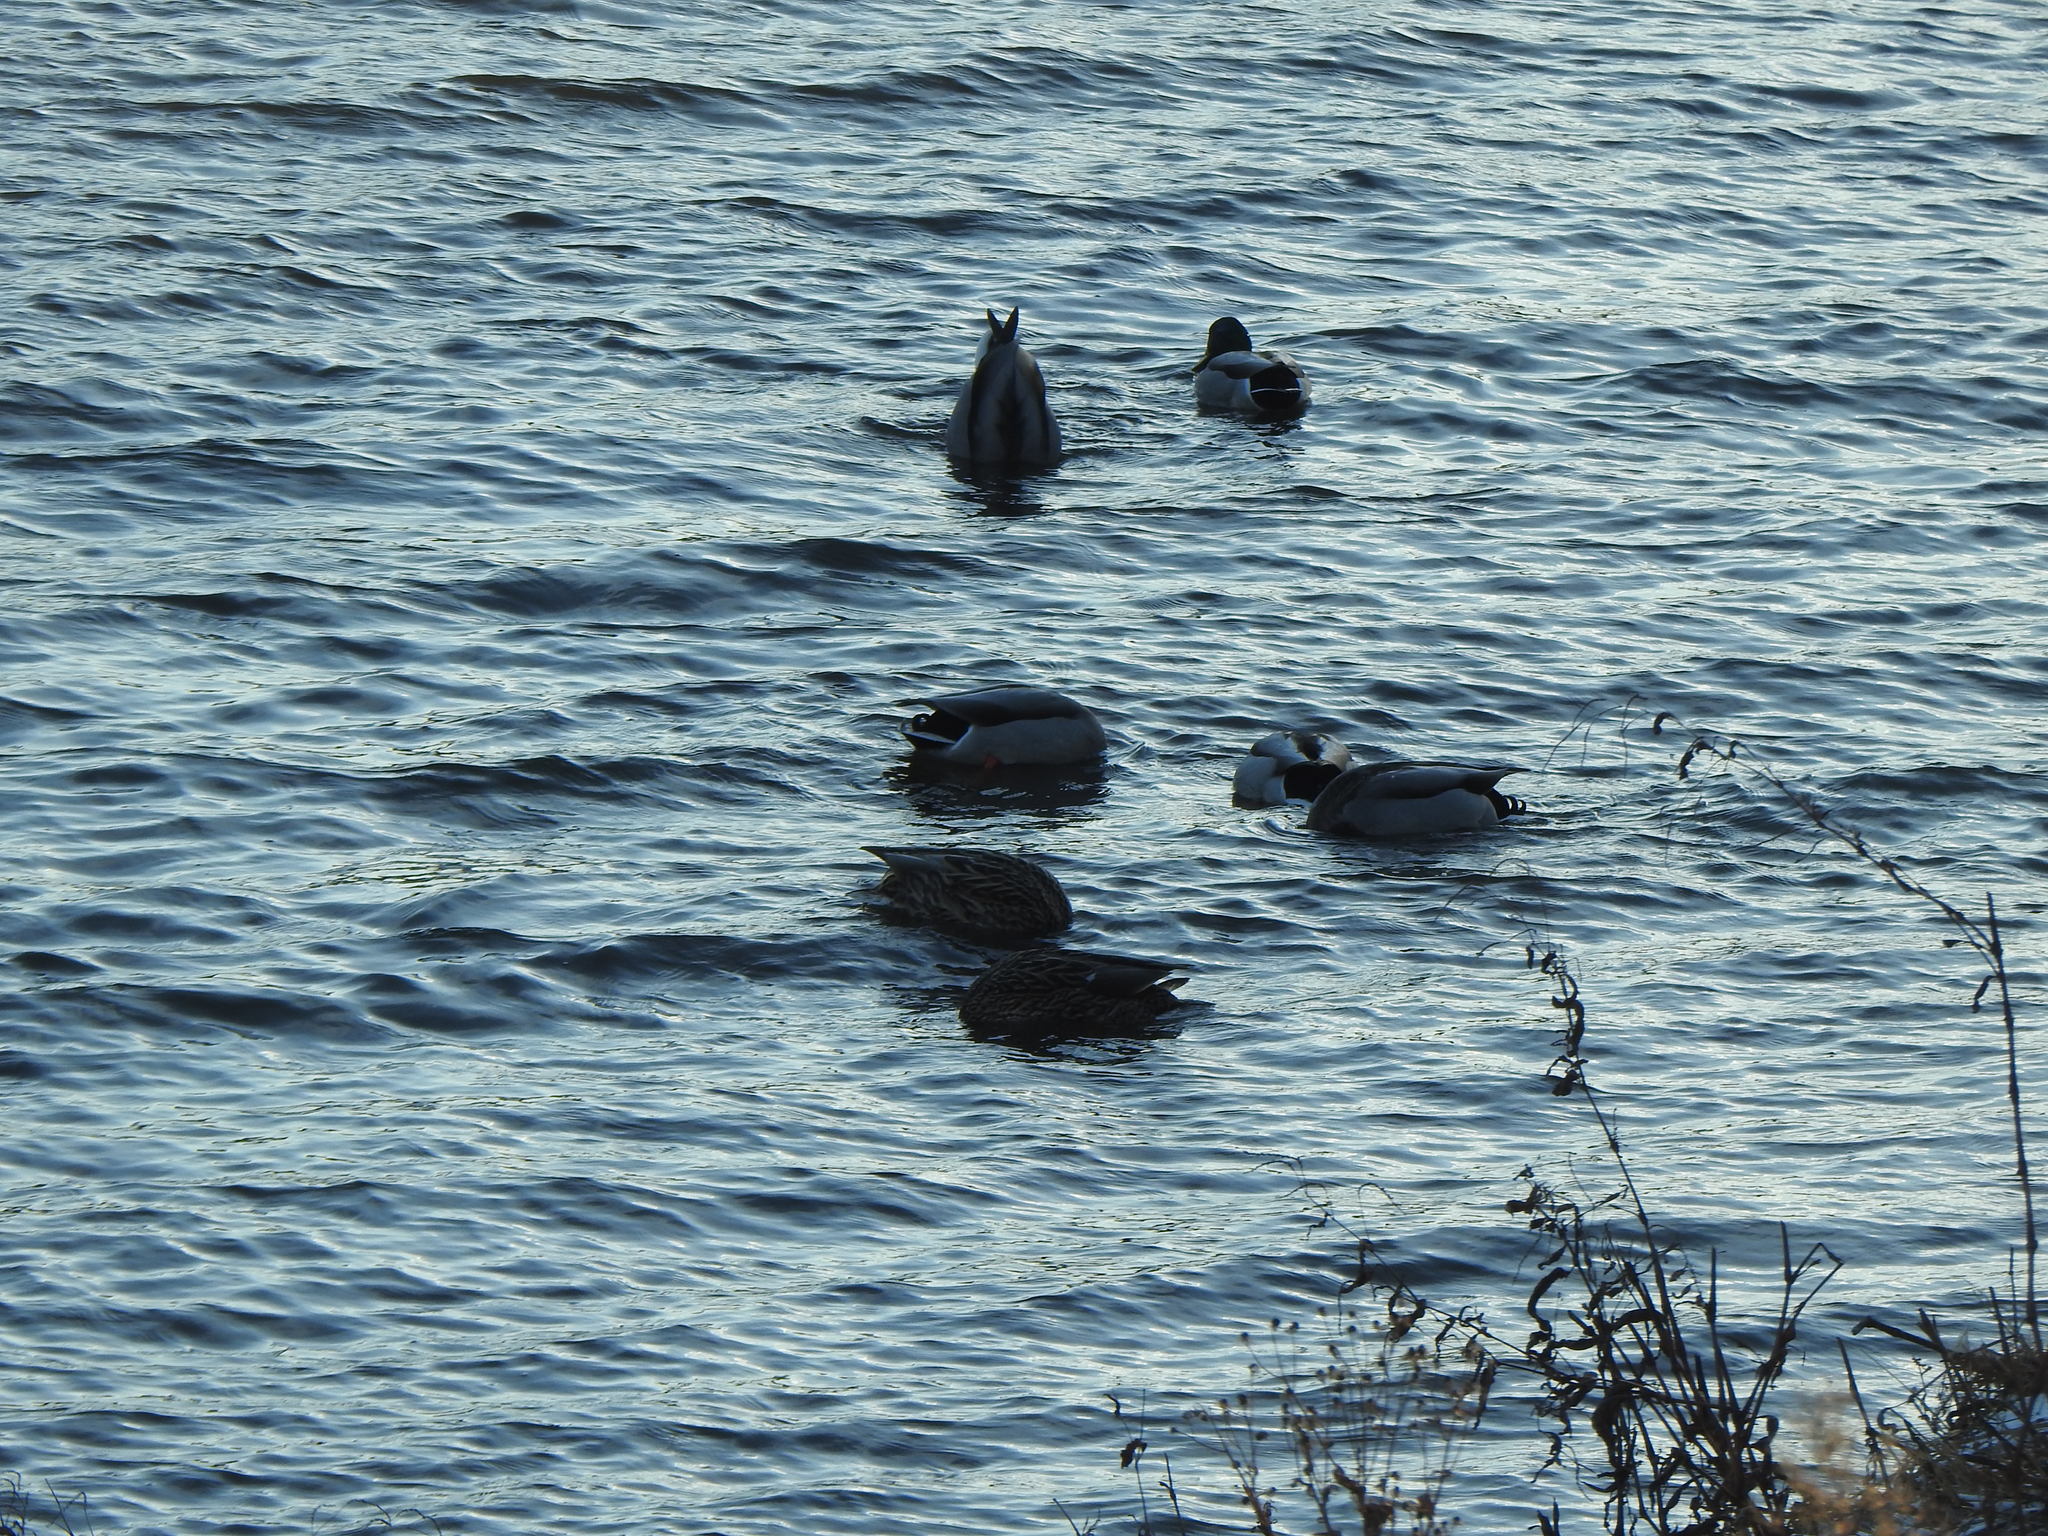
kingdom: Animalia
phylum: Chordata
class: Aves
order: Anseriformes
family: Anatidae
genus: Anas
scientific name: Anas platyrhynchos
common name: Mallard
